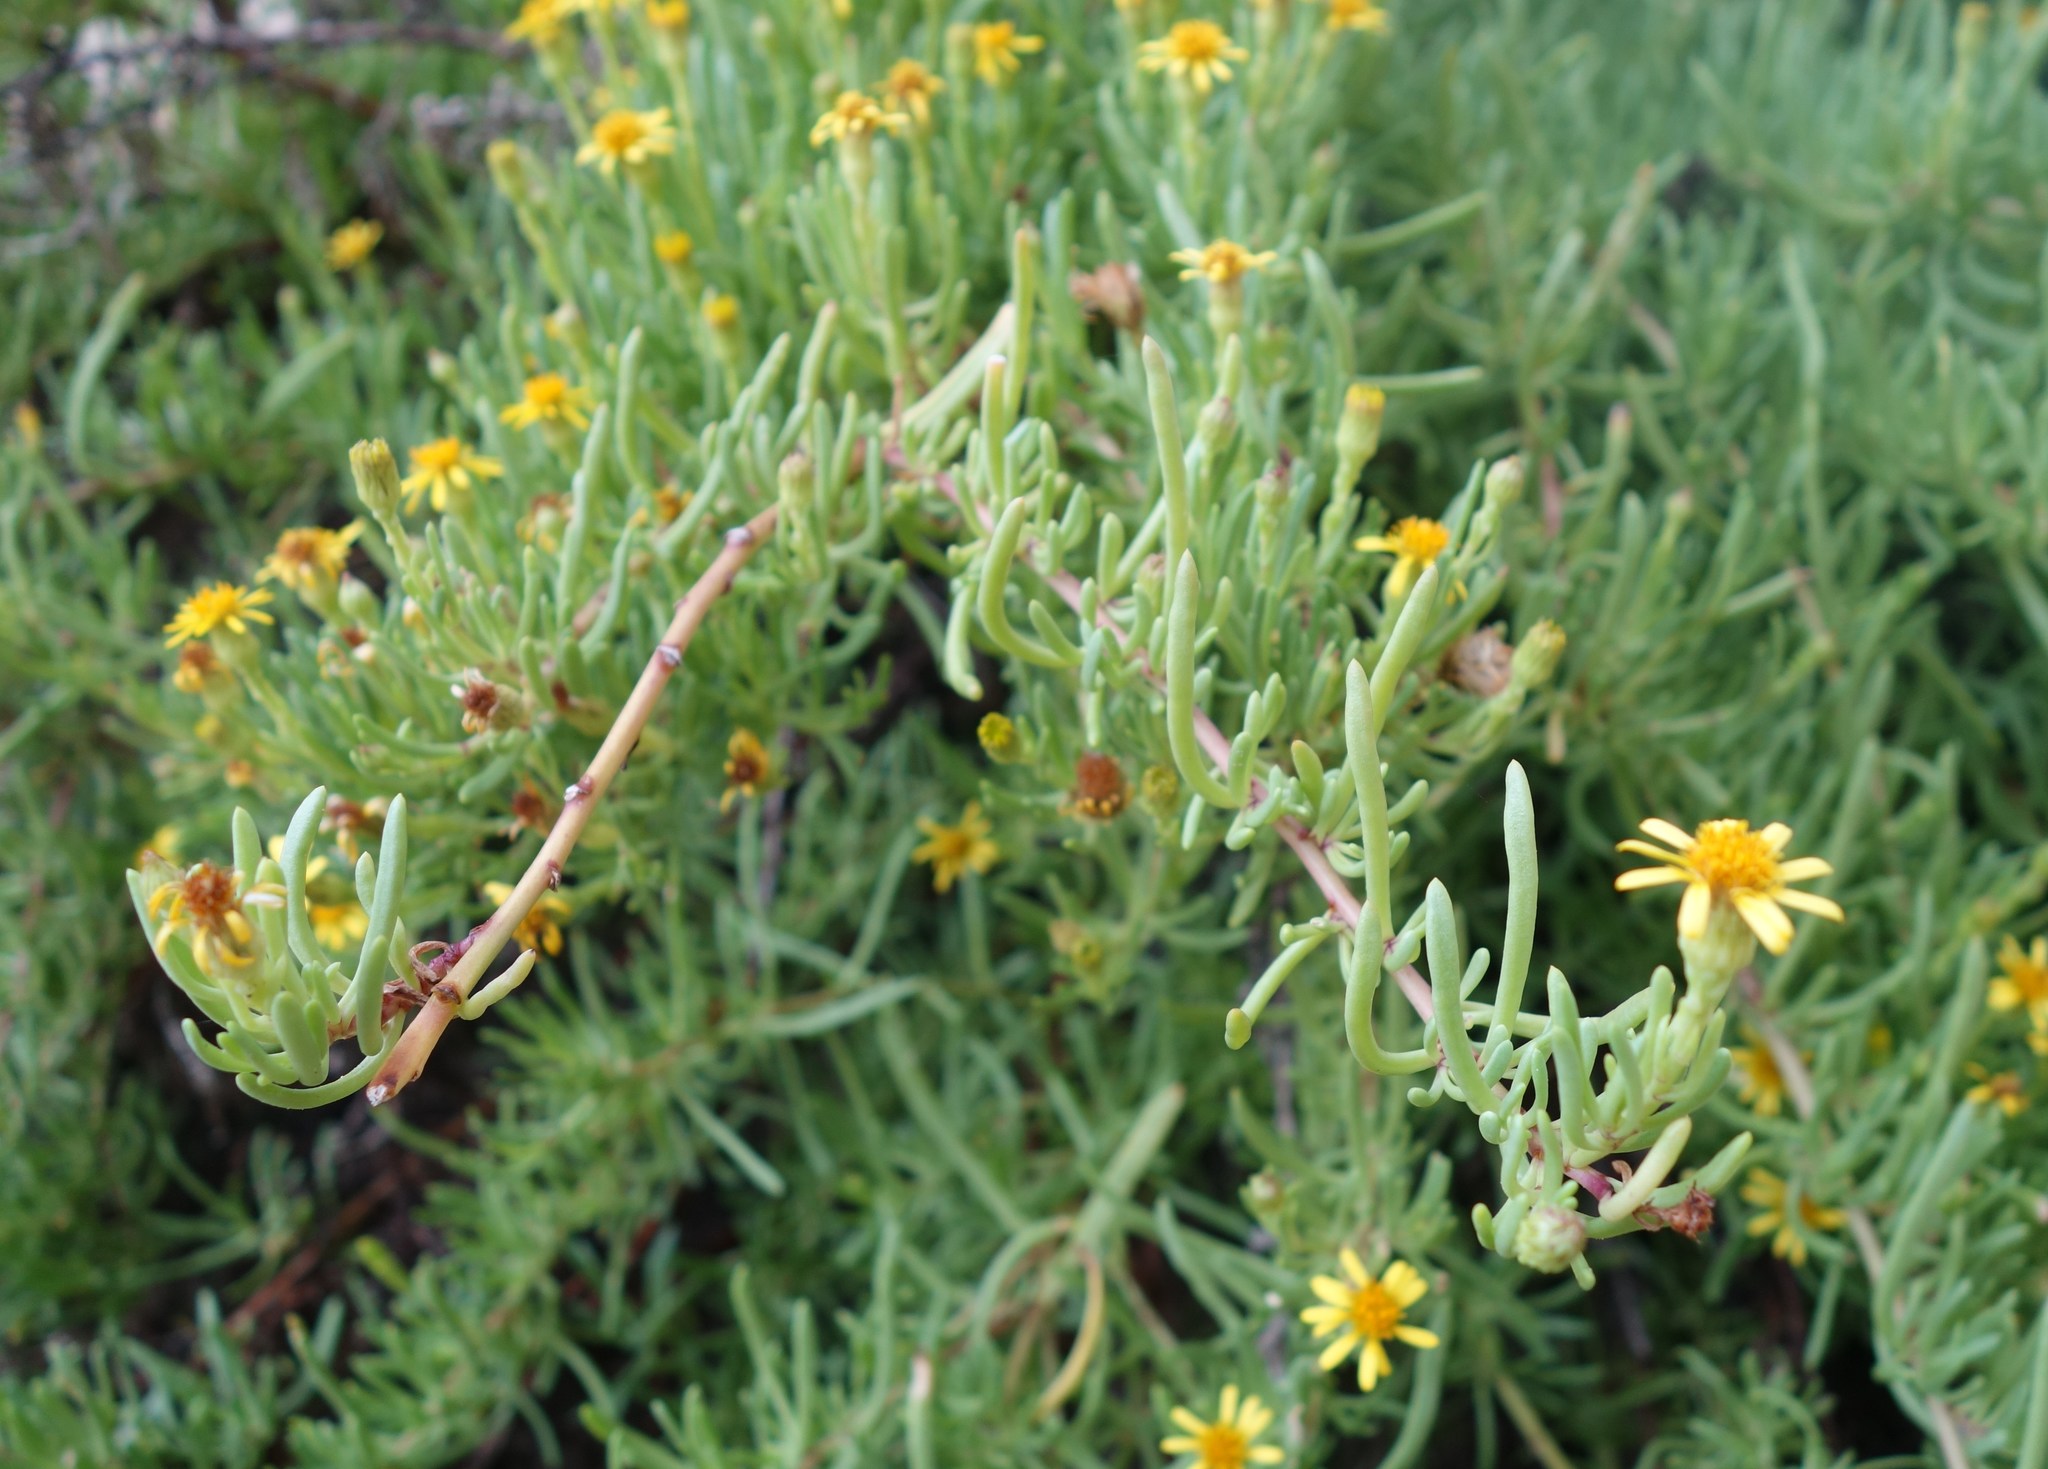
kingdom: Plantae
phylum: Tracheophyta
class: Magnoliopsida
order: Asterales
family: Asteraceae
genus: Limbarda
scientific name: Limbarda crithmoides
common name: Golden samphire
